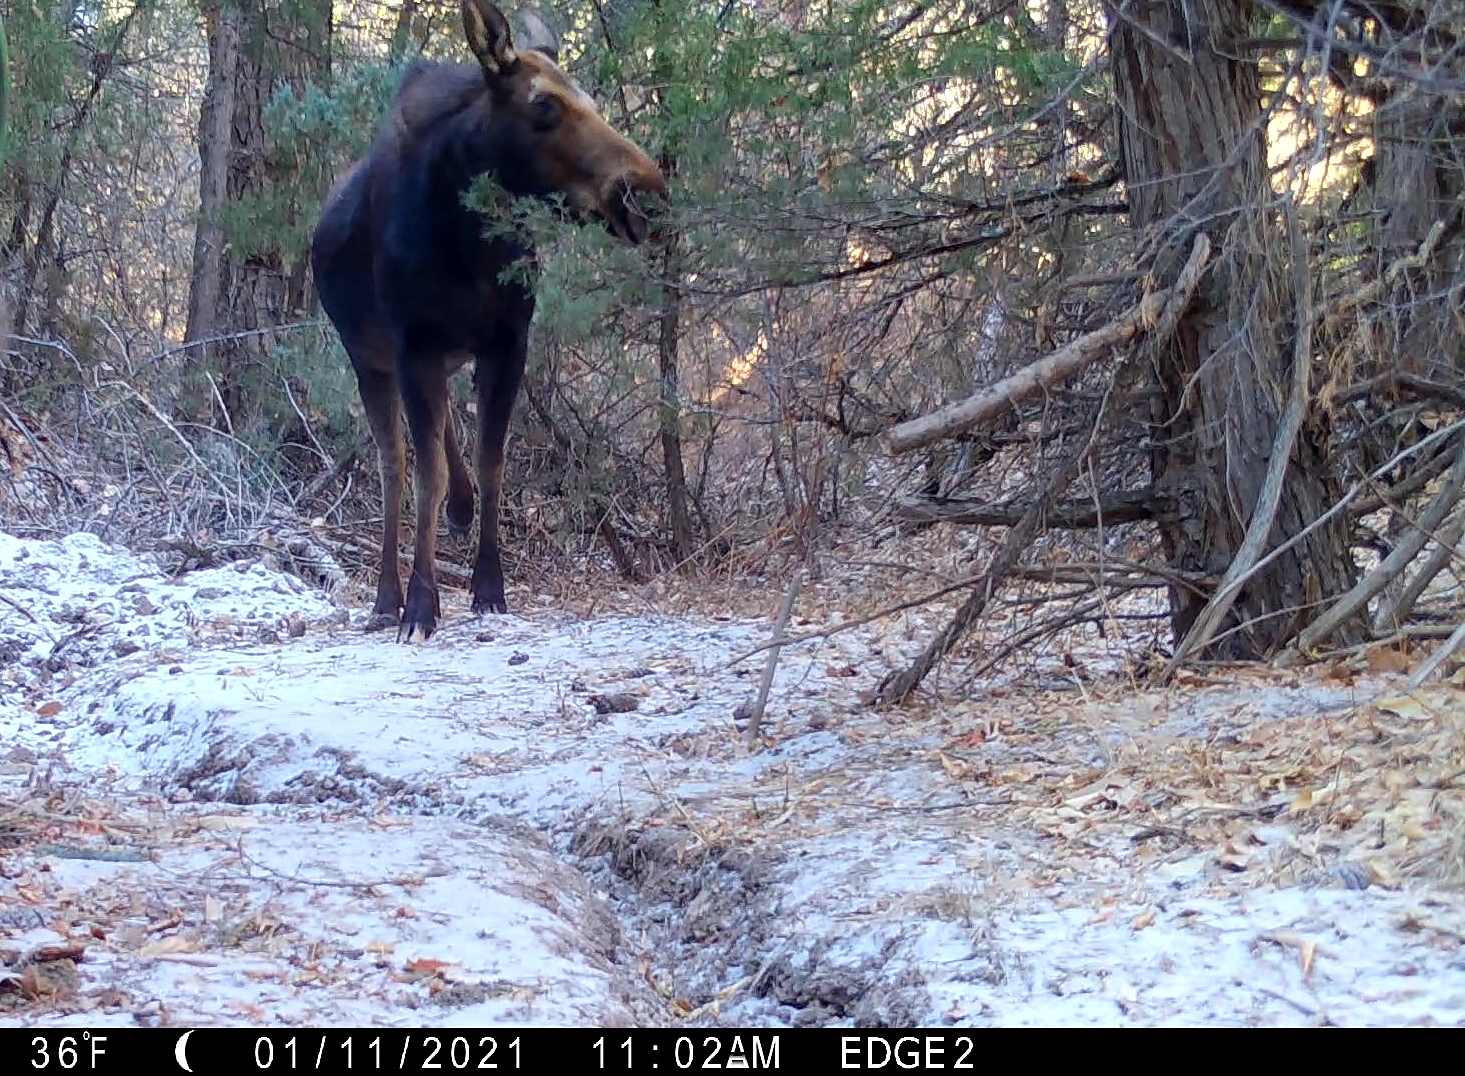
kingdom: Animalia
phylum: Chordata
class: Mammalia
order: Artiodactyla
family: Cervidae
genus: Alces
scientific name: Alces alces
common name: Moose
